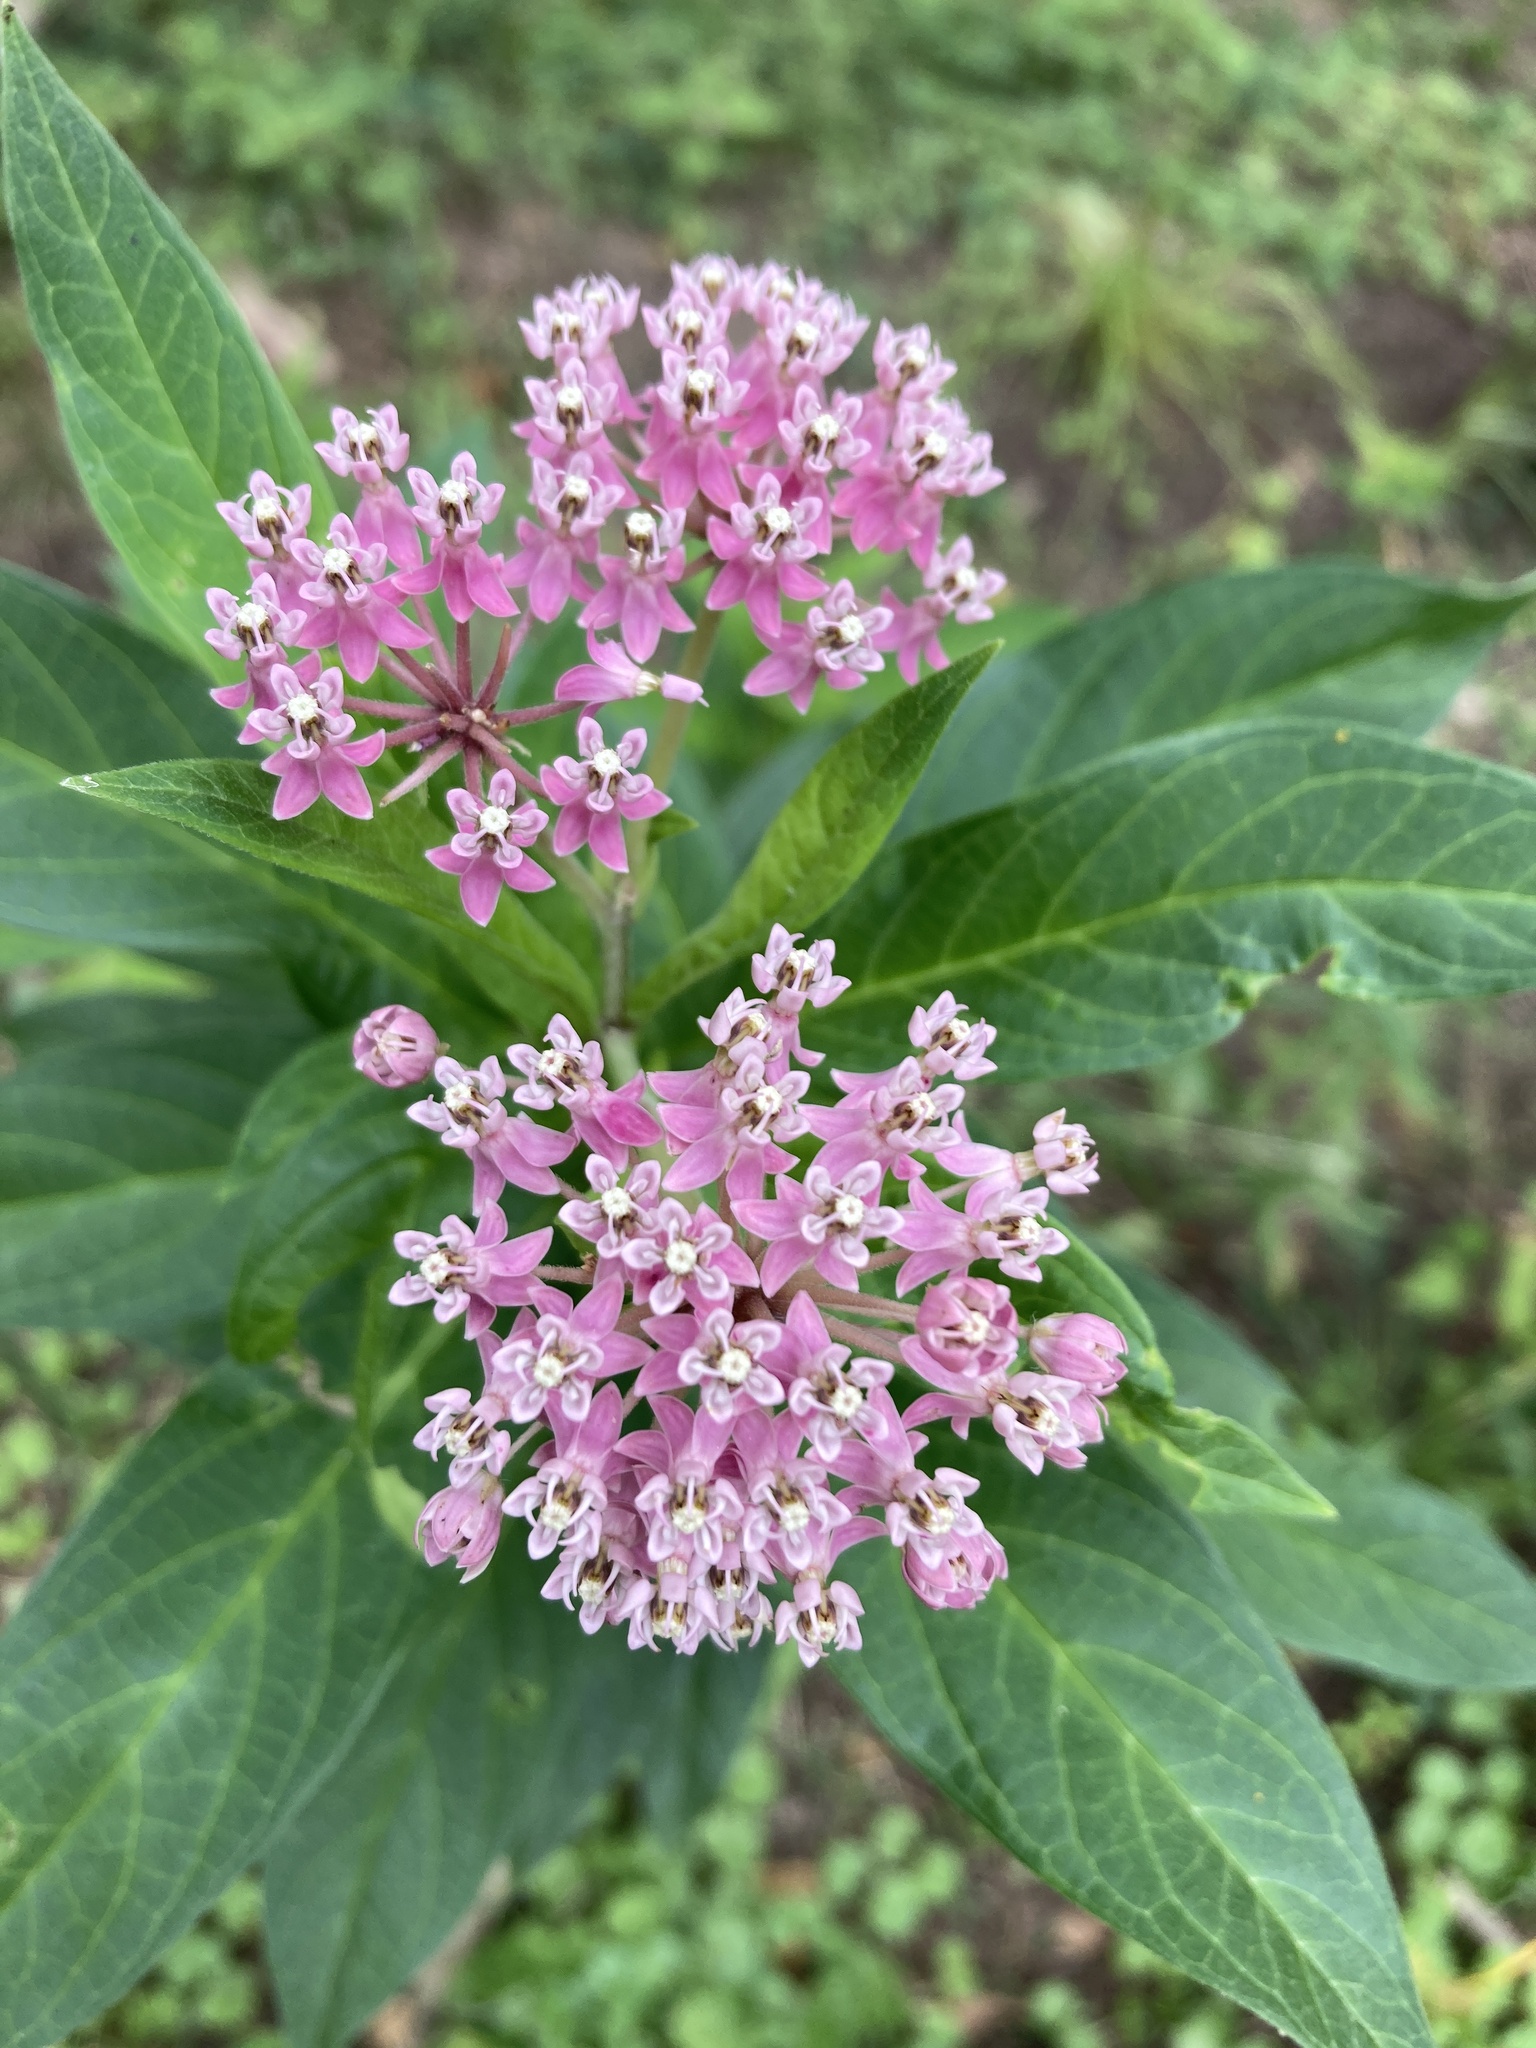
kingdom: Plantae
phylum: Tracheophyta
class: Magnoliopsida
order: Gentianales
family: Apocynaceae
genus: Asclepias
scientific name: Asclepias incarnata
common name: Swamp milkweed
